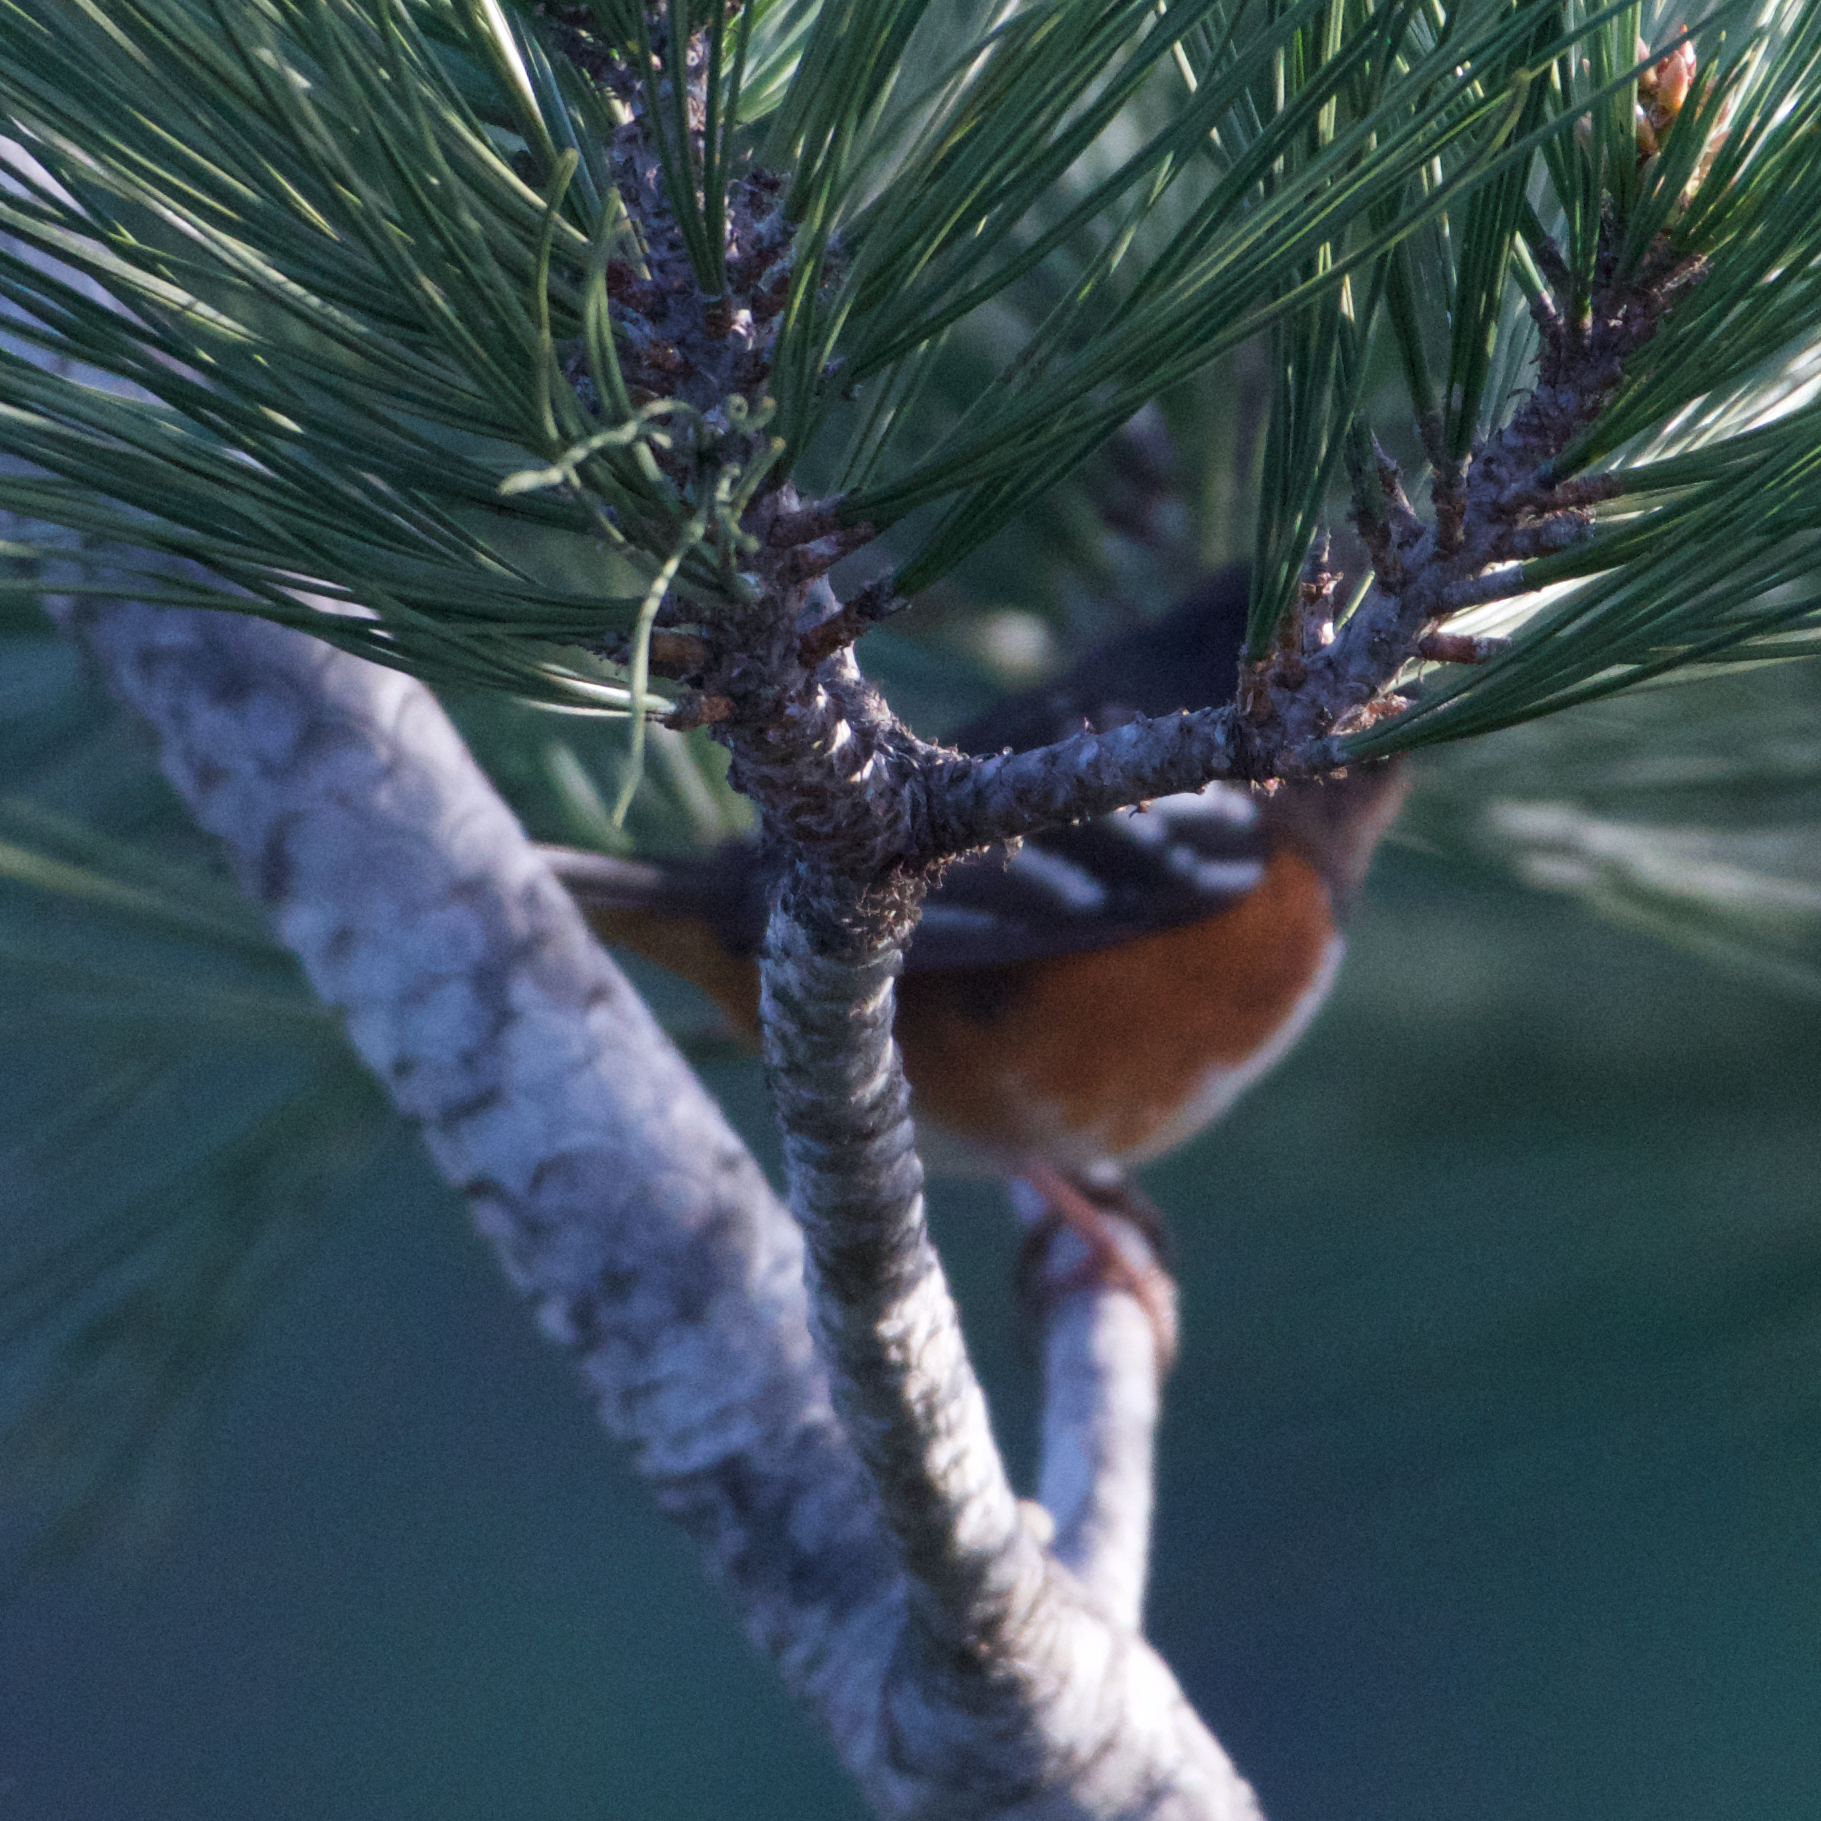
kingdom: Animalia
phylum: Chordata
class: Aves
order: Passeriformes
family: Passerellidae
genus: Pipilo
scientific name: Pipilo maculatus
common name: Spotted towhee
